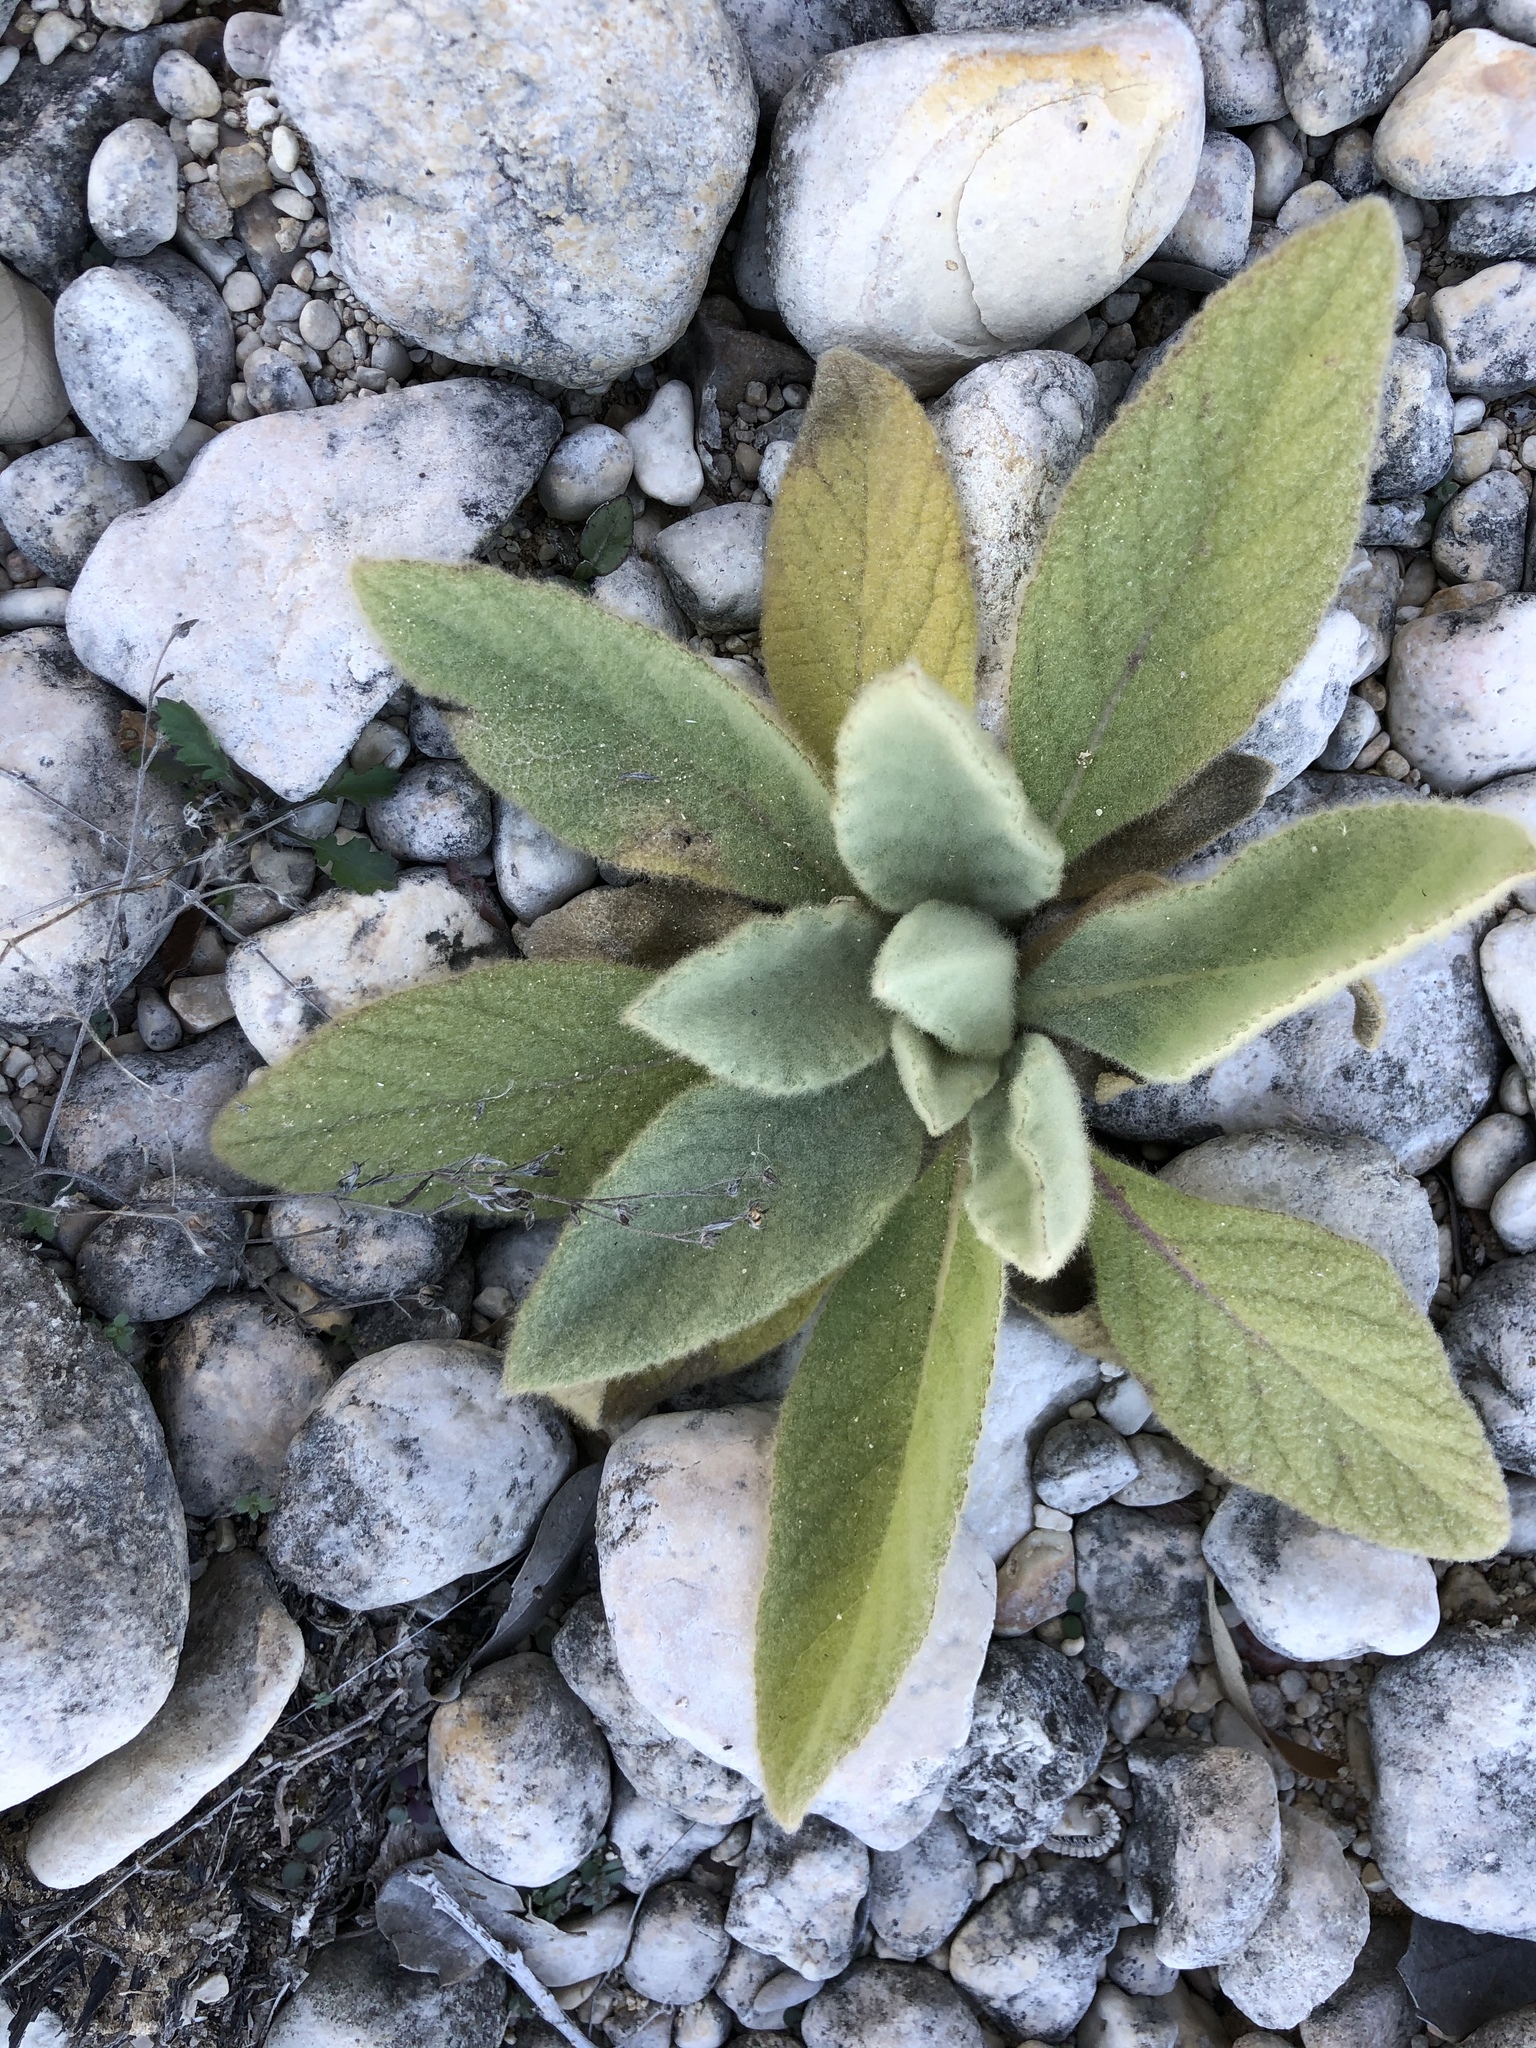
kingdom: Plantae
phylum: Tracheophyta
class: Magnoliopsida
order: Lamiales
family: Scrophulariaceae
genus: Verbascum
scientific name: Verbascum thapsus
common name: Common mullein
